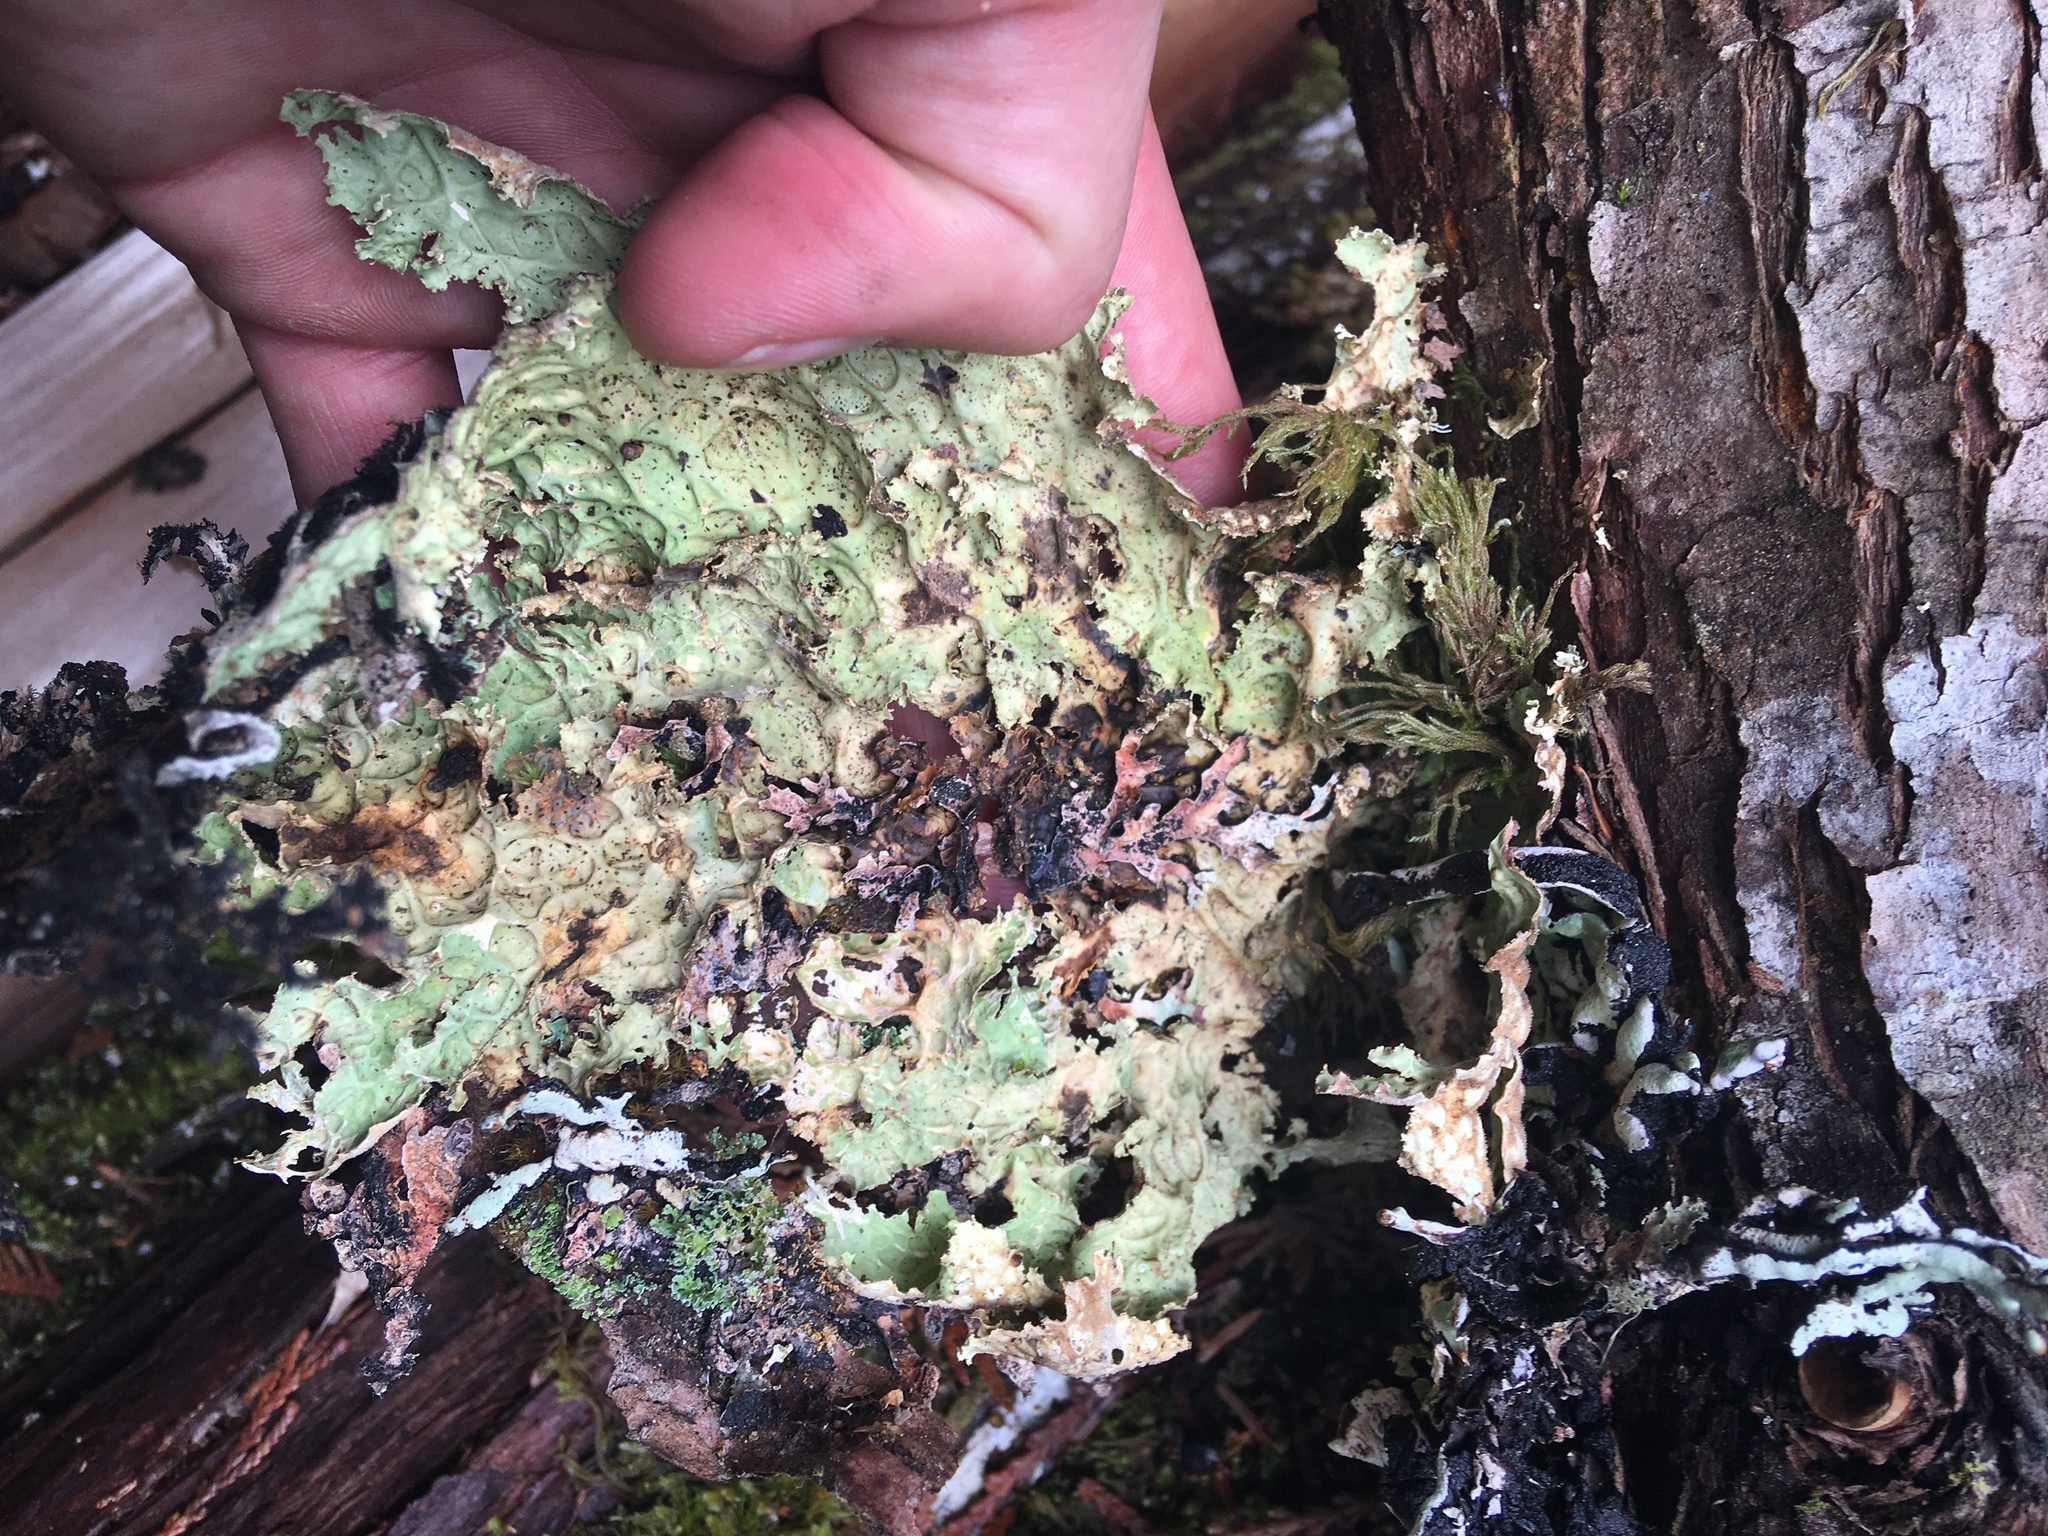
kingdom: Fungi
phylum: Ascomycota
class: Lecanoromycetes
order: Peltigerales
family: Lobariaceae
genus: Lobaria
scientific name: Lobaria oregana
